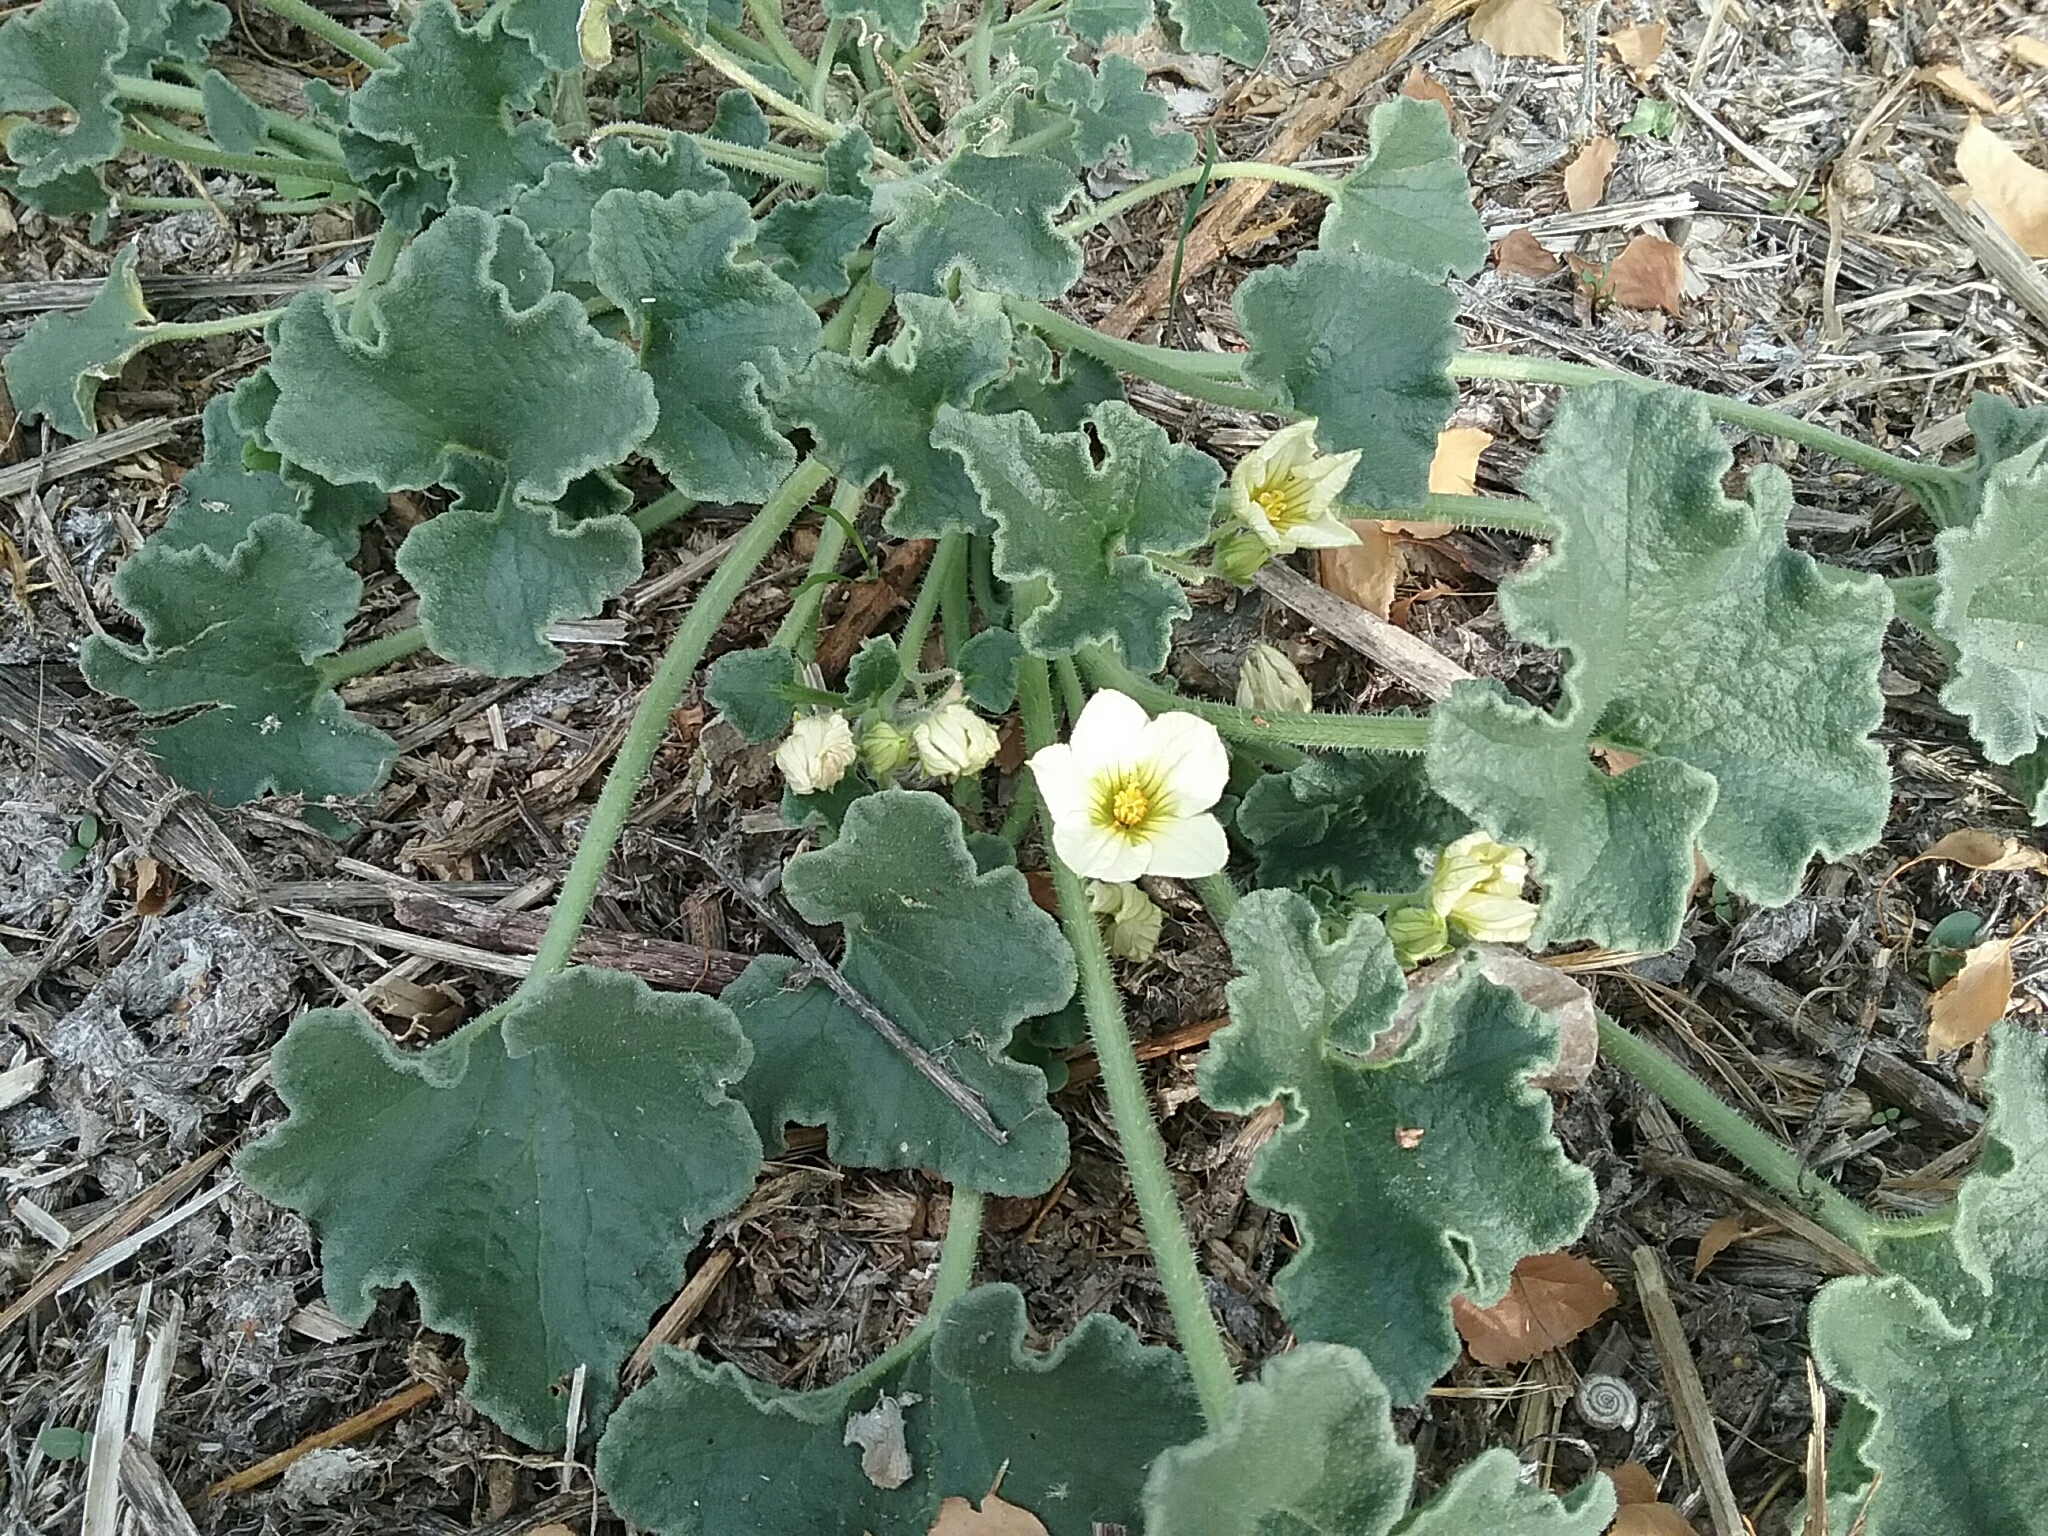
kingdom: Plantae
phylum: Tracheophyta
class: Magnoliopsida
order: Cucurbitales
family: Cucurbitaceae
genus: Ecballium
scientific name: Ecballium elaterium
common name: Squirting cucumber
